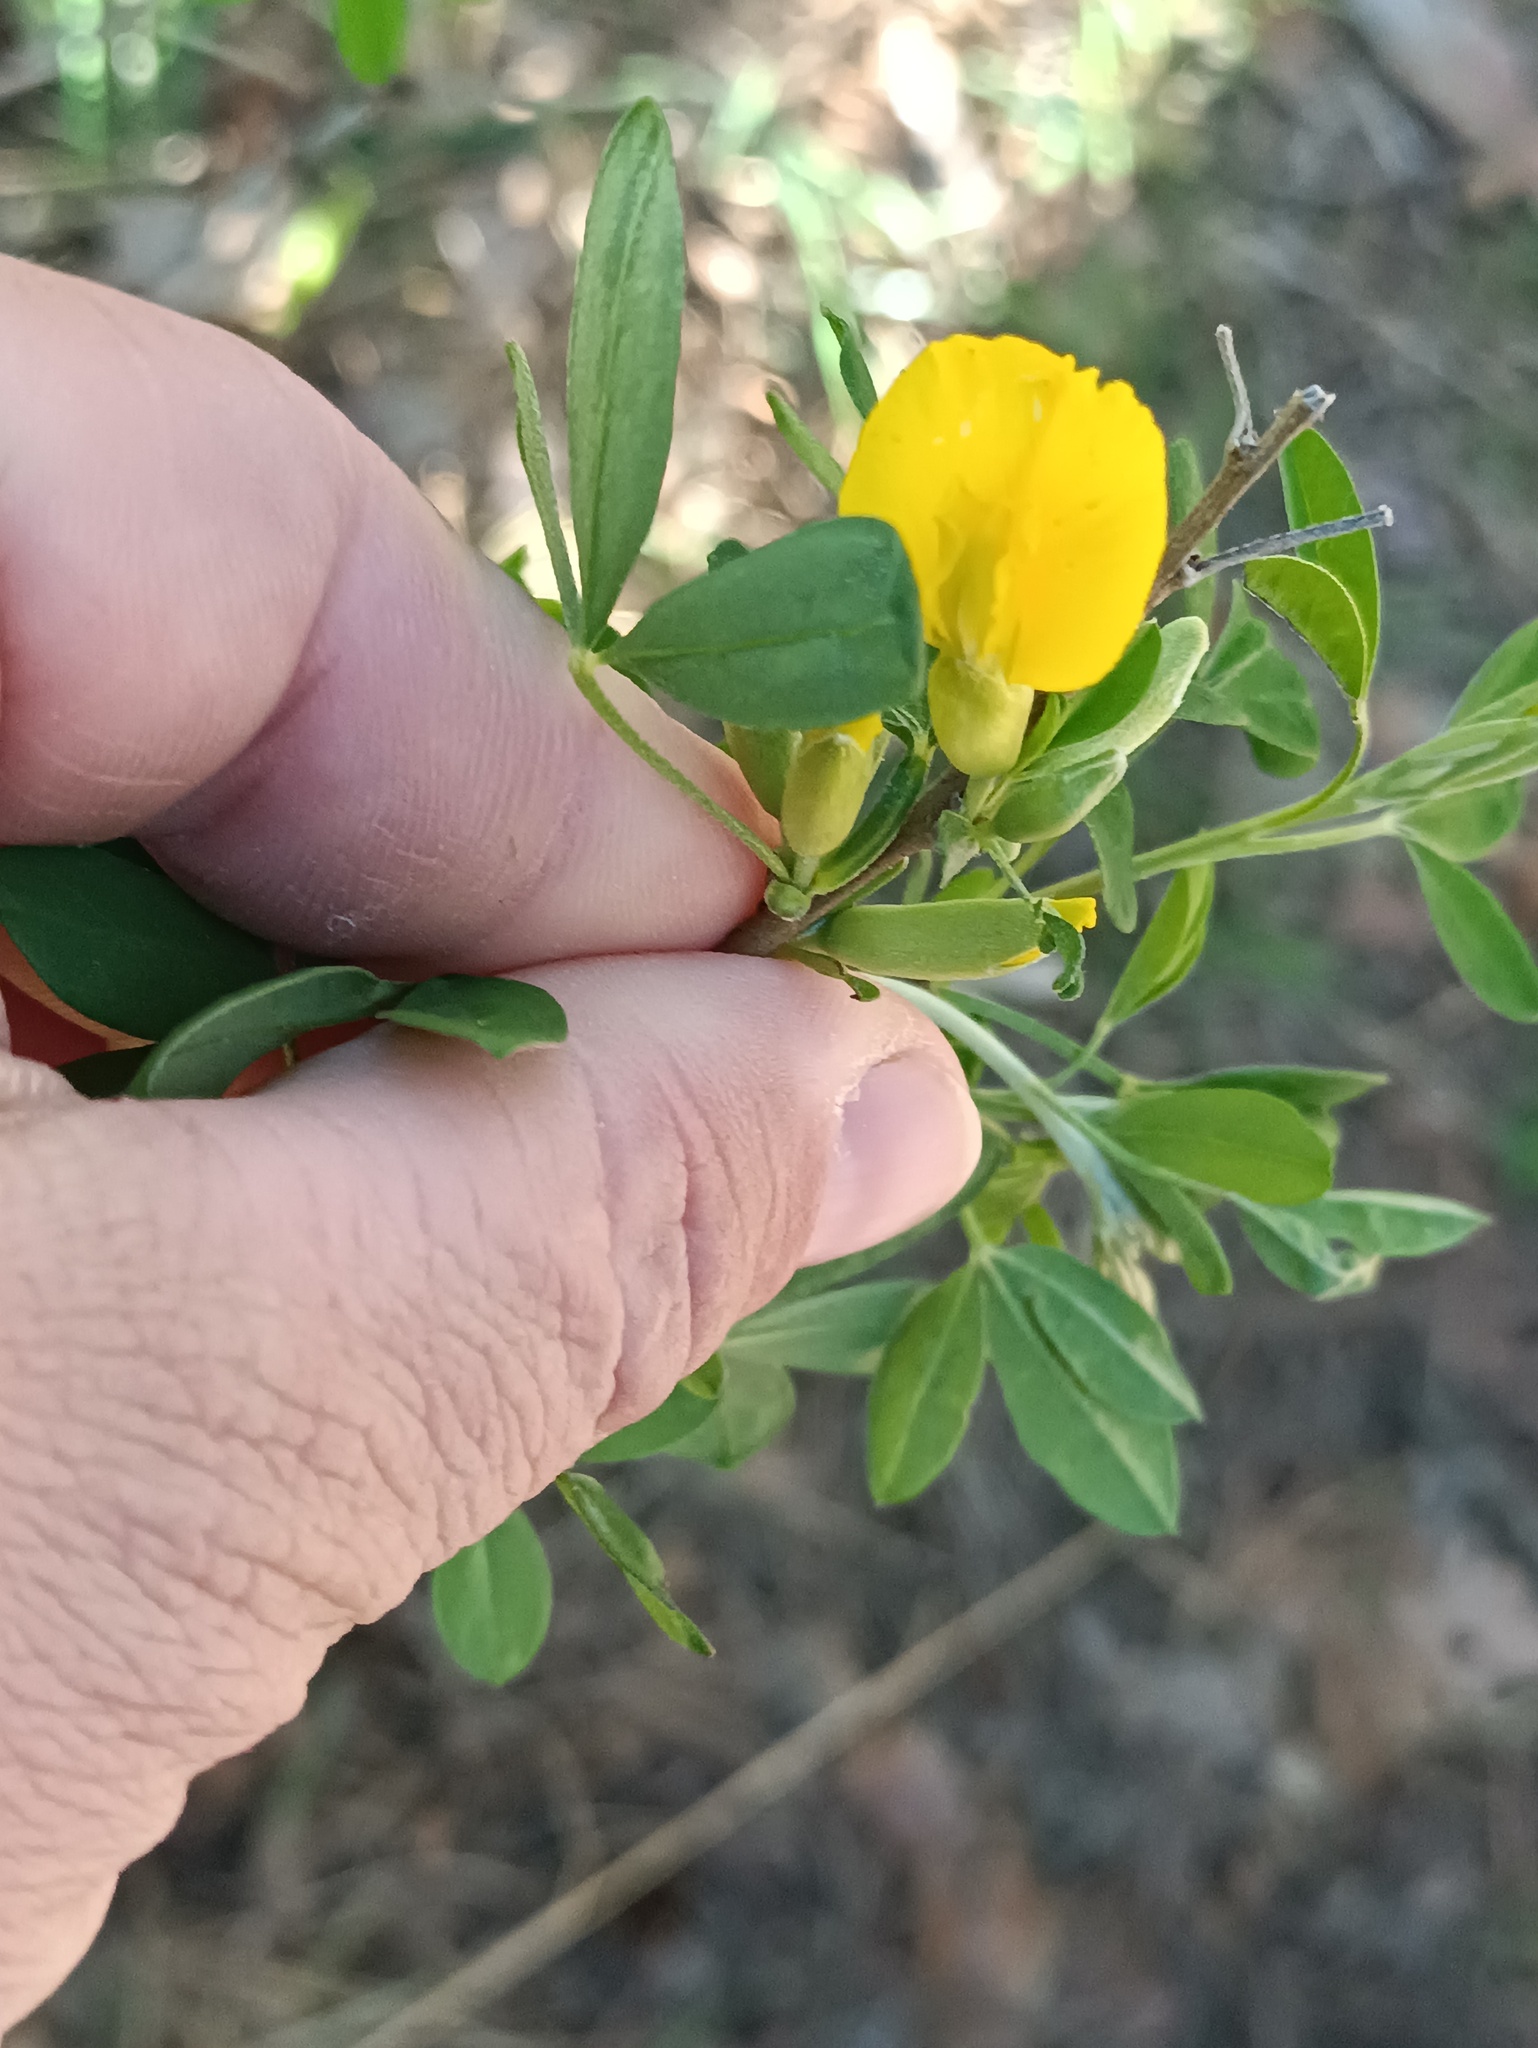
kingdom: Plantae
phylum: Tracheophyta
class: Magnoliopsida
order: Fabales
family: Fabaceae
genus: Chamaecytisus
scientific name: Chamaecytisus ruthenicus
